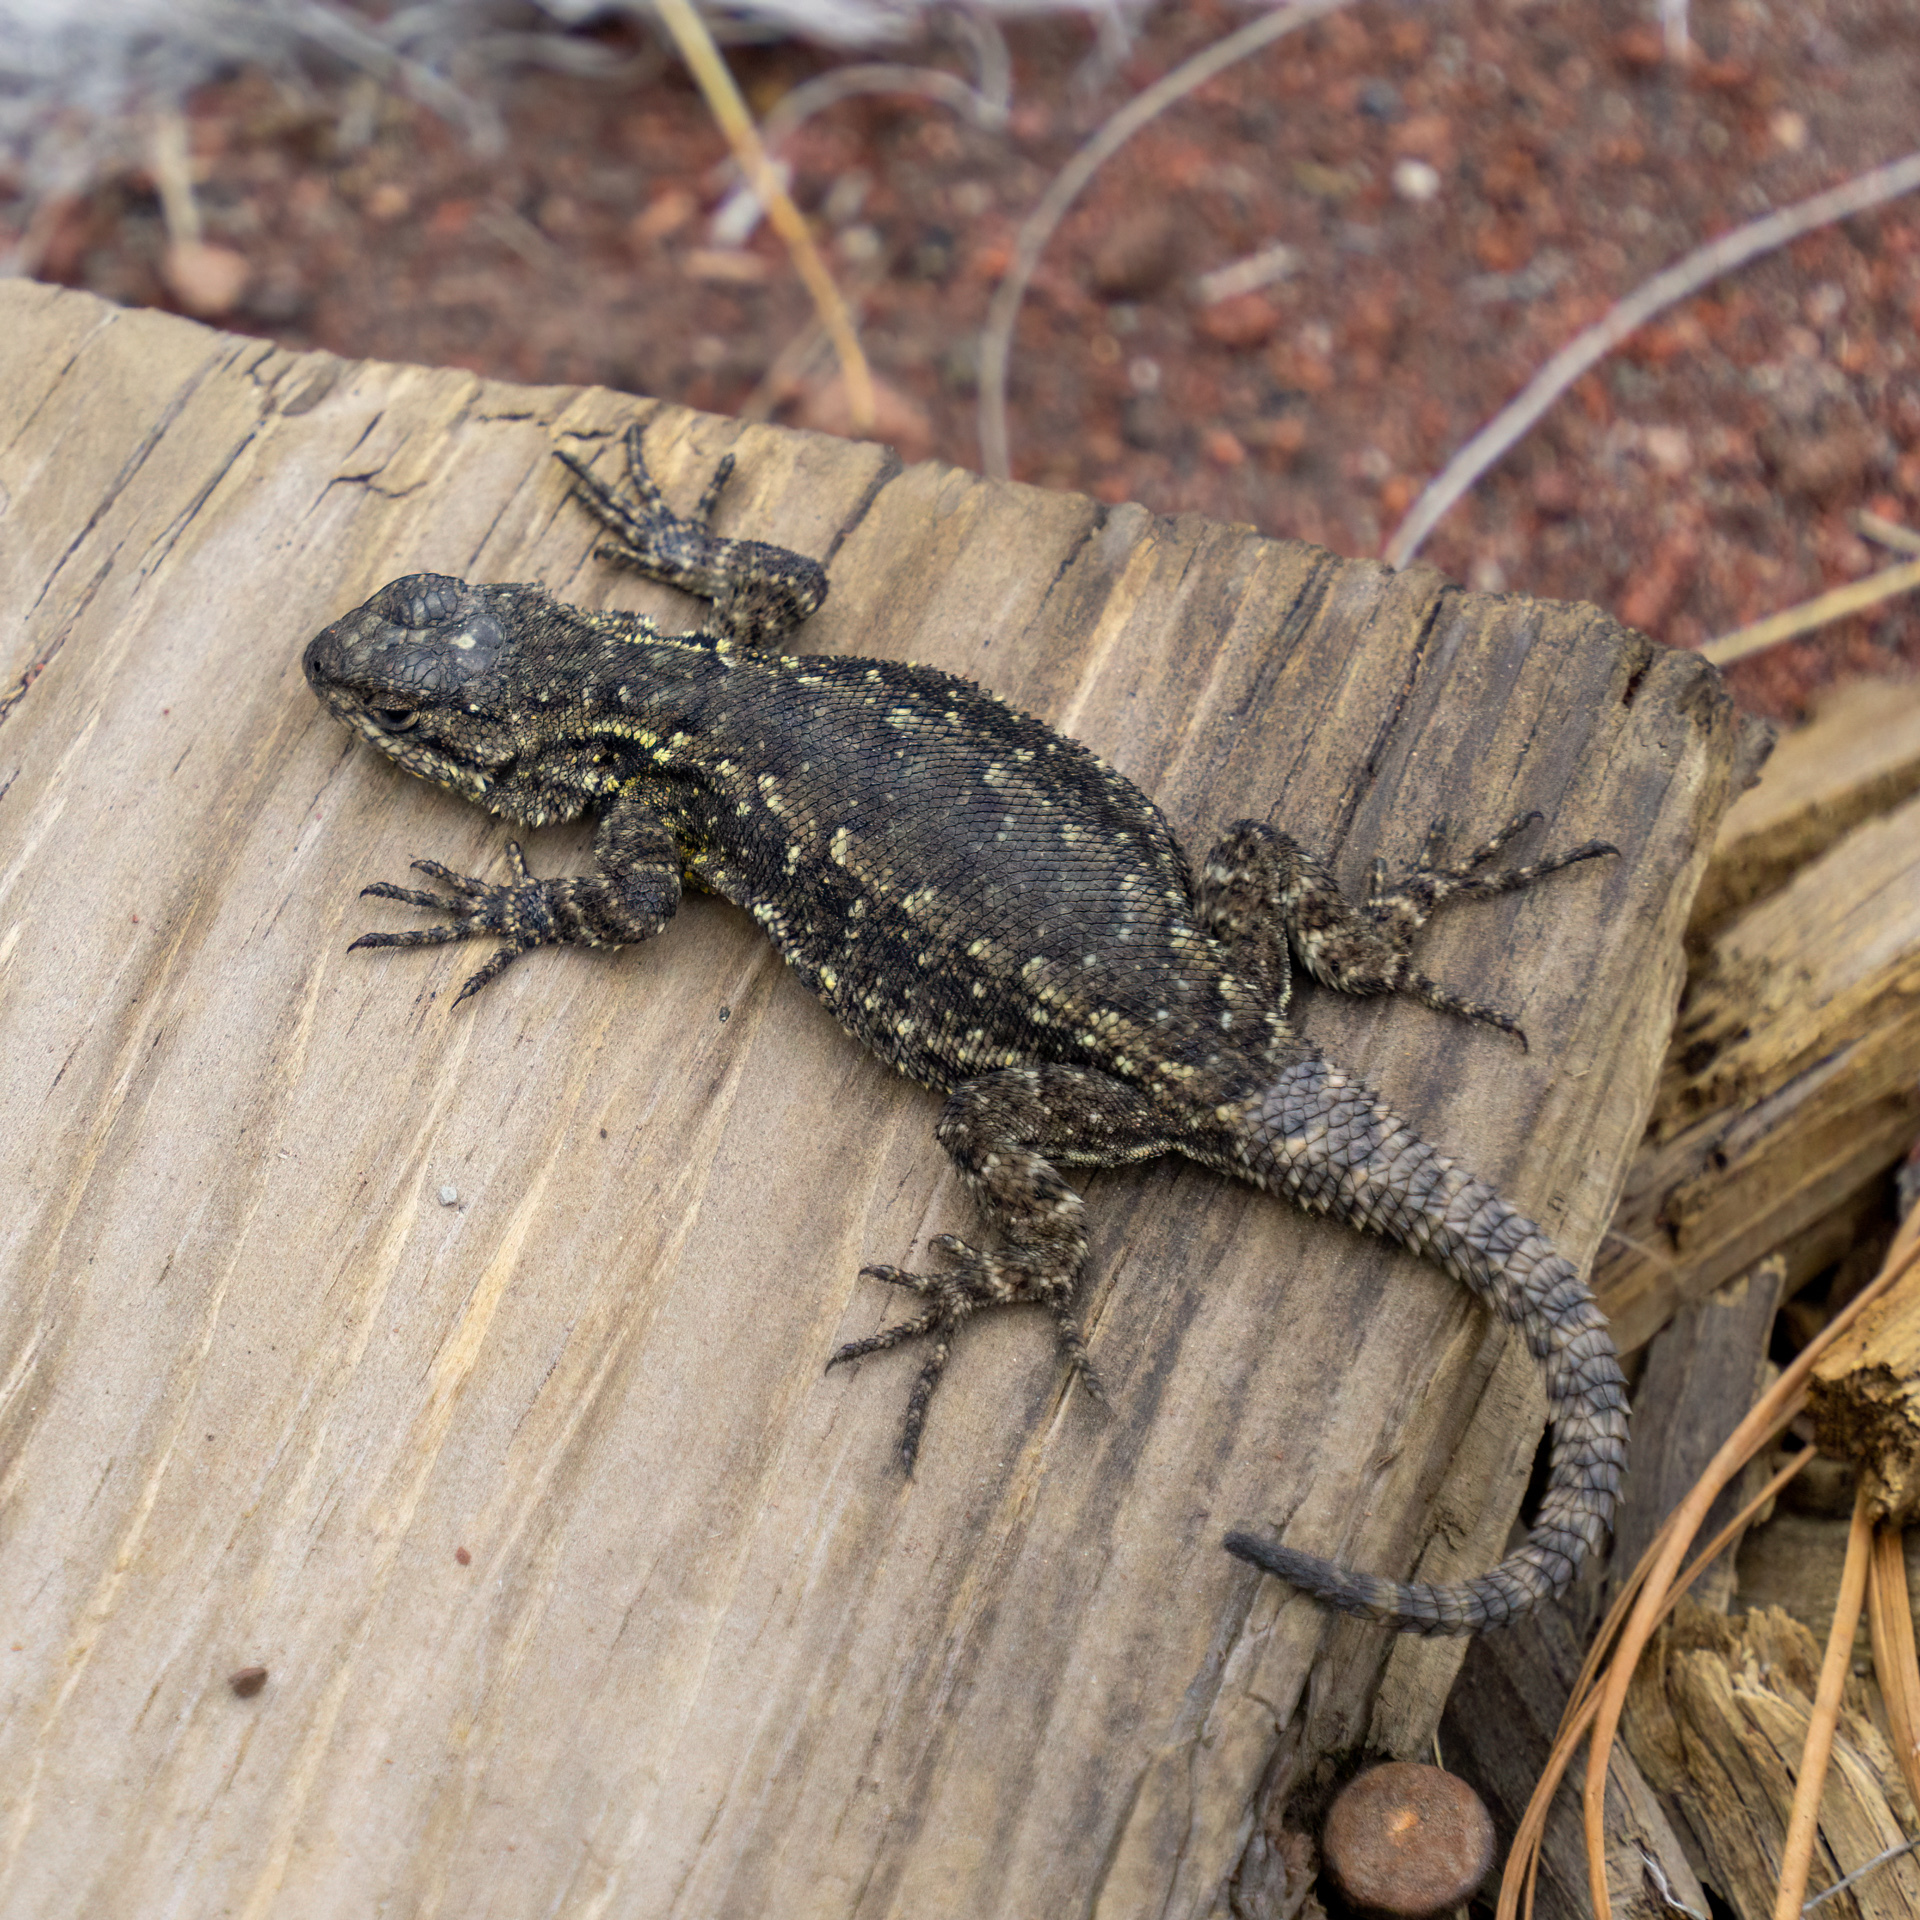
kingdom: Animalia
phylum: Chordata
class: Squamata
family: Phrynosomatidae
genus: Sceloporus
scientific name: Sceloporus anahuacus
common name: Anahuacan bunchgrass lizard
